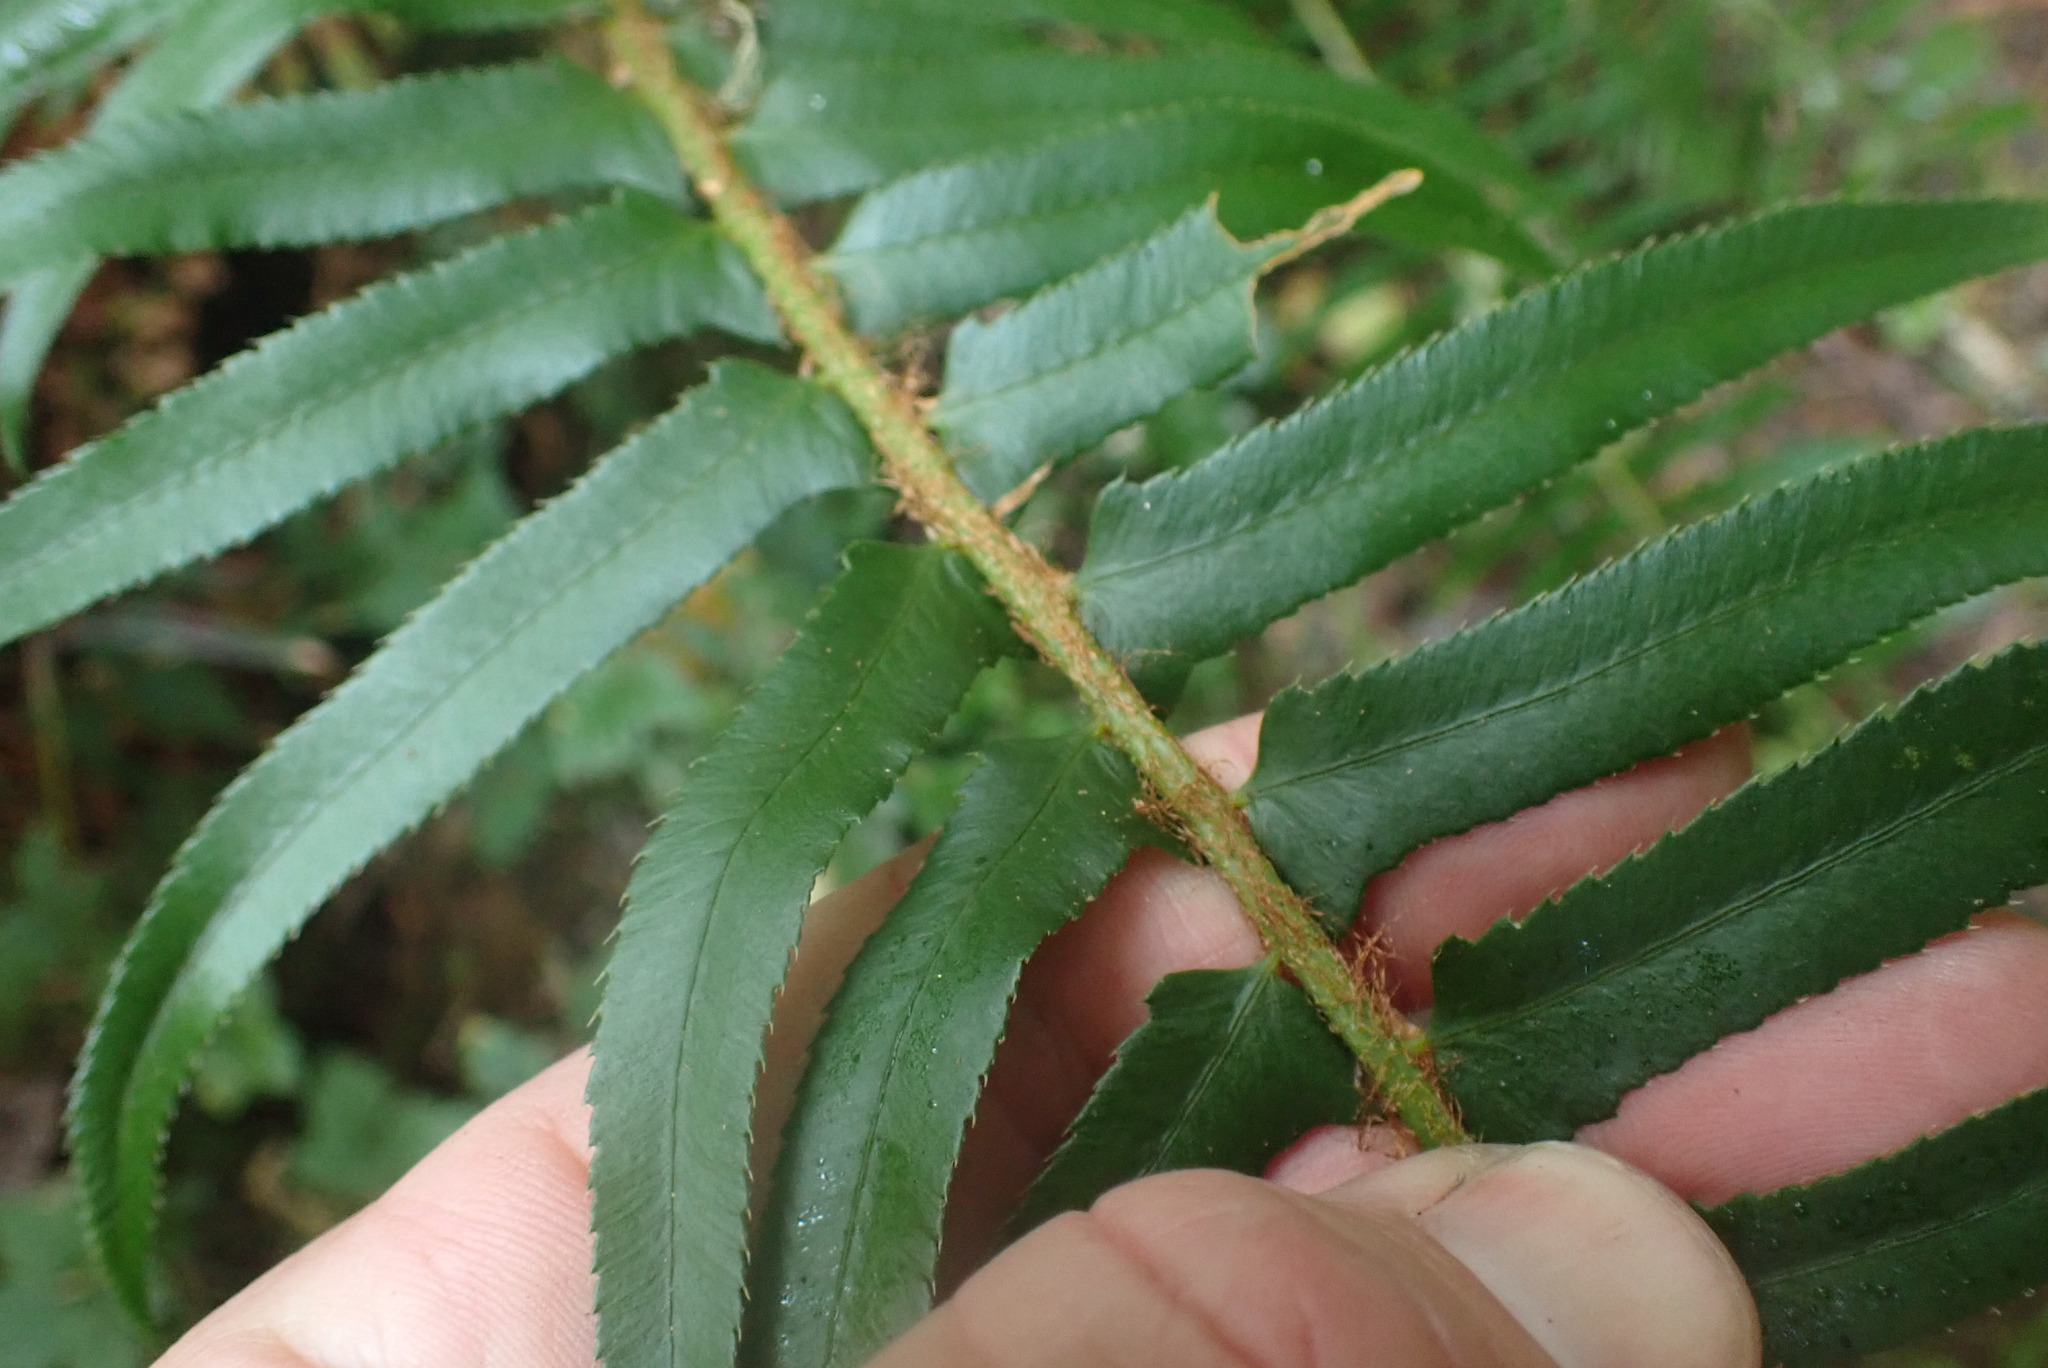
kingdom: Plantae
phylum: Tracheophyta
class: Polypodiopsida
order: Polypodiales
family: Dryopteridaceae
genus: Polystichum
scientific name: Polystichum munitum
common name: Western sword-fern
